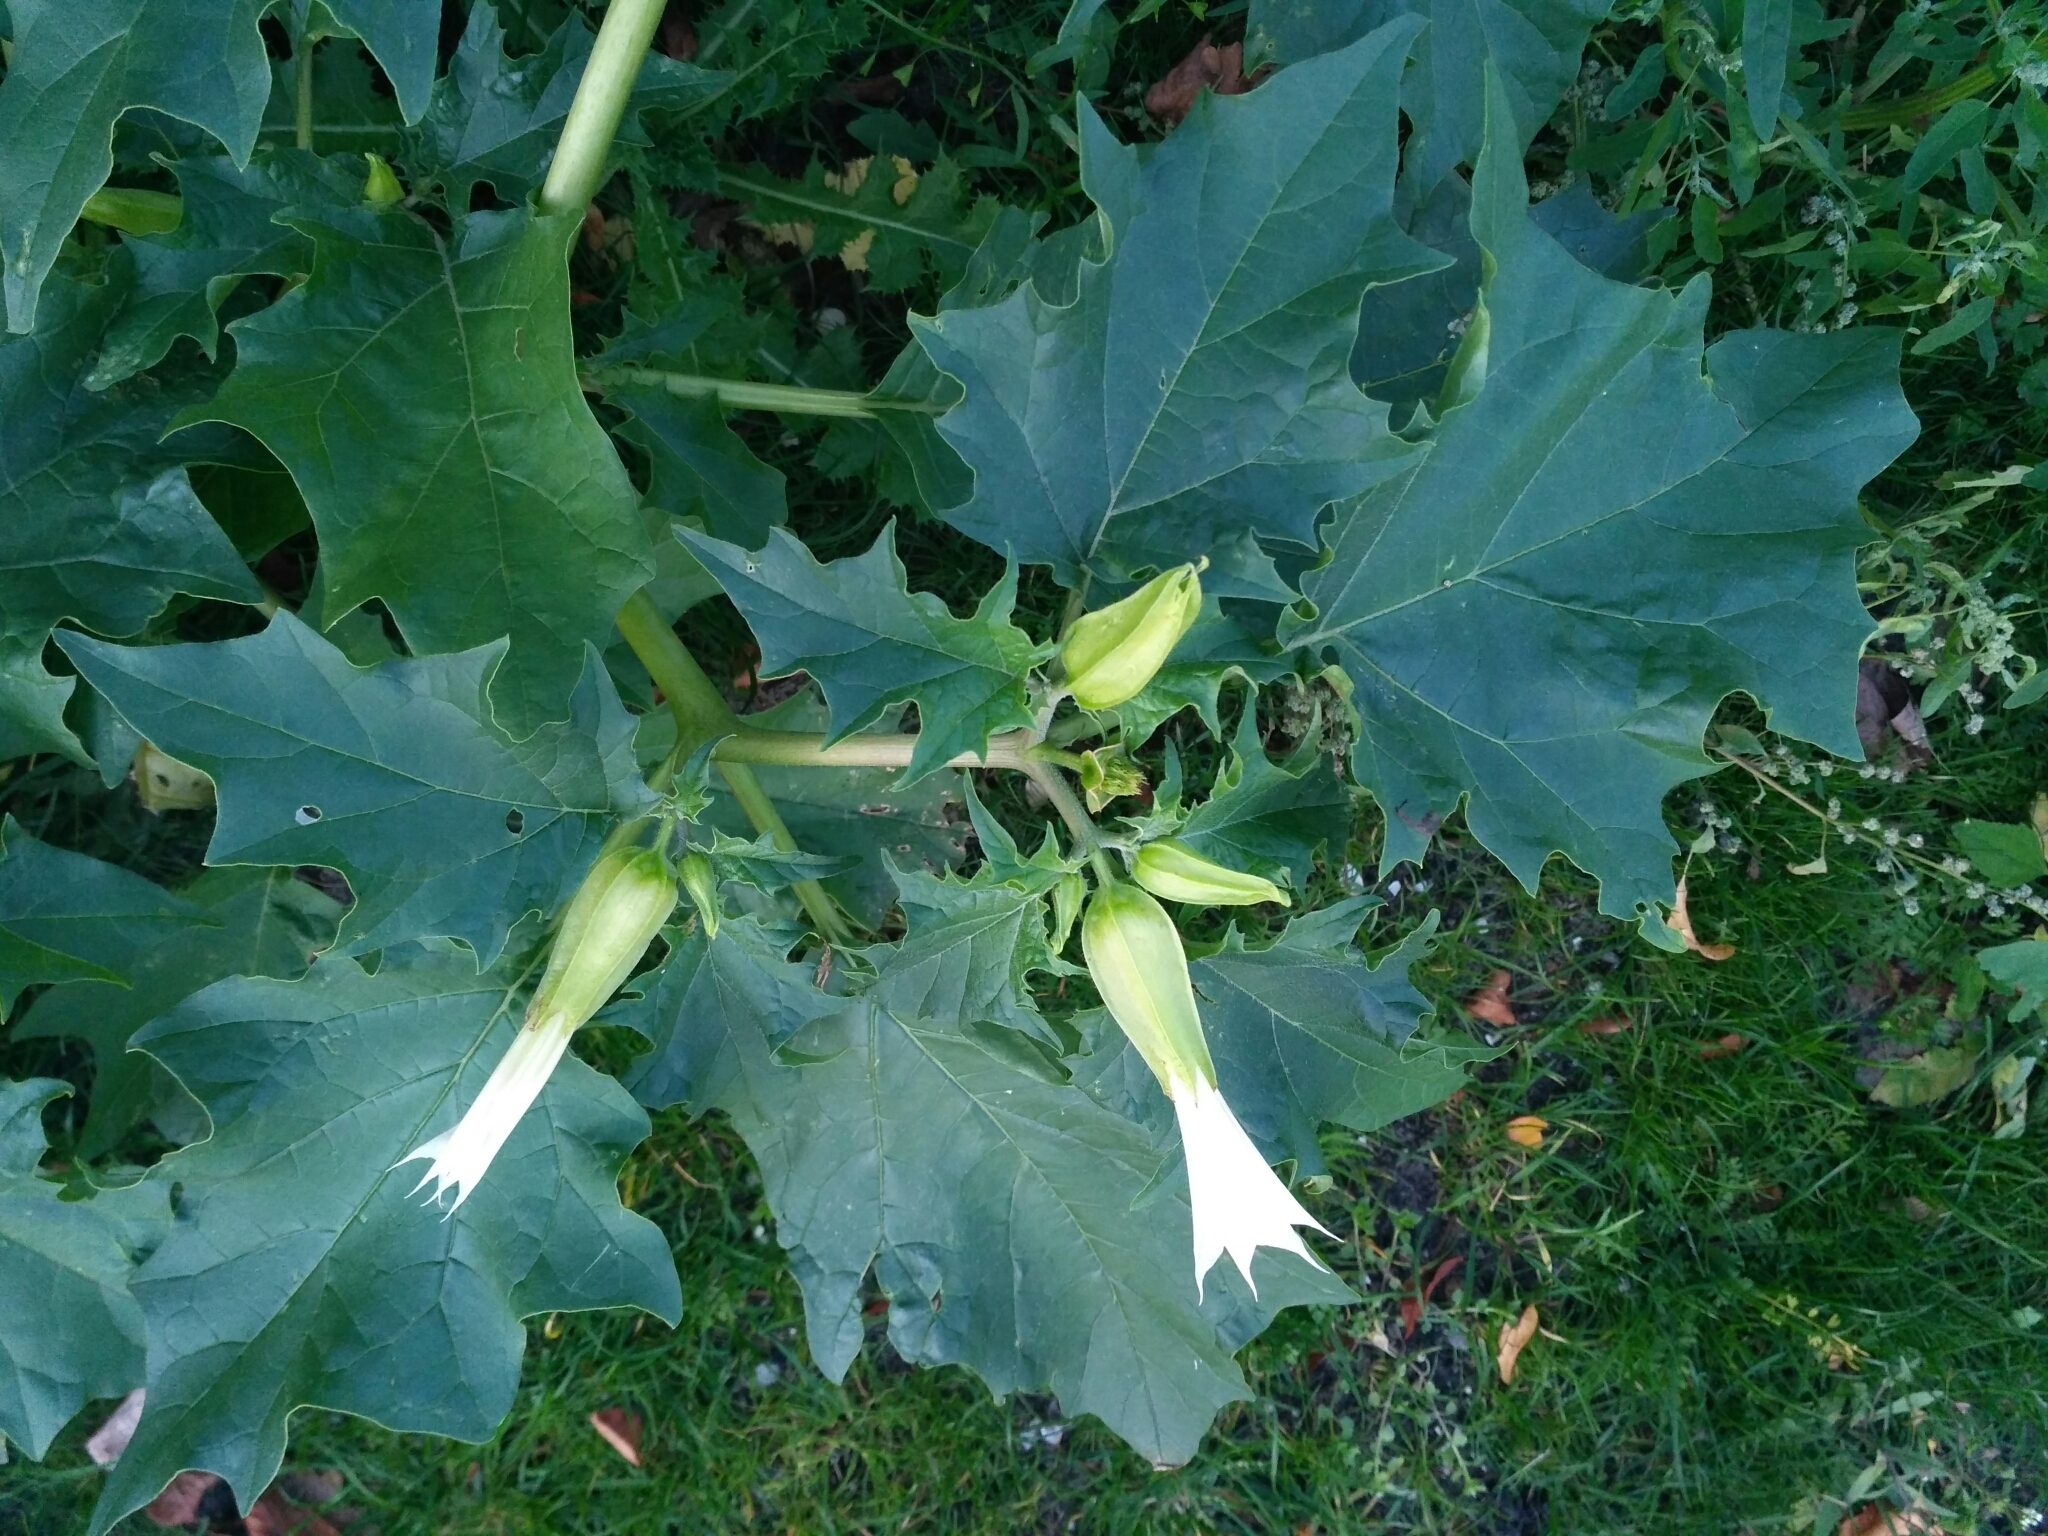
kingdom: Plantae
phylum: Tracheophyta
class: Magnoliopsida
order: Solanales
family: Solanaceae
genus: Datura
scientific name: Datura stramonium
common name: Thorn-apple
